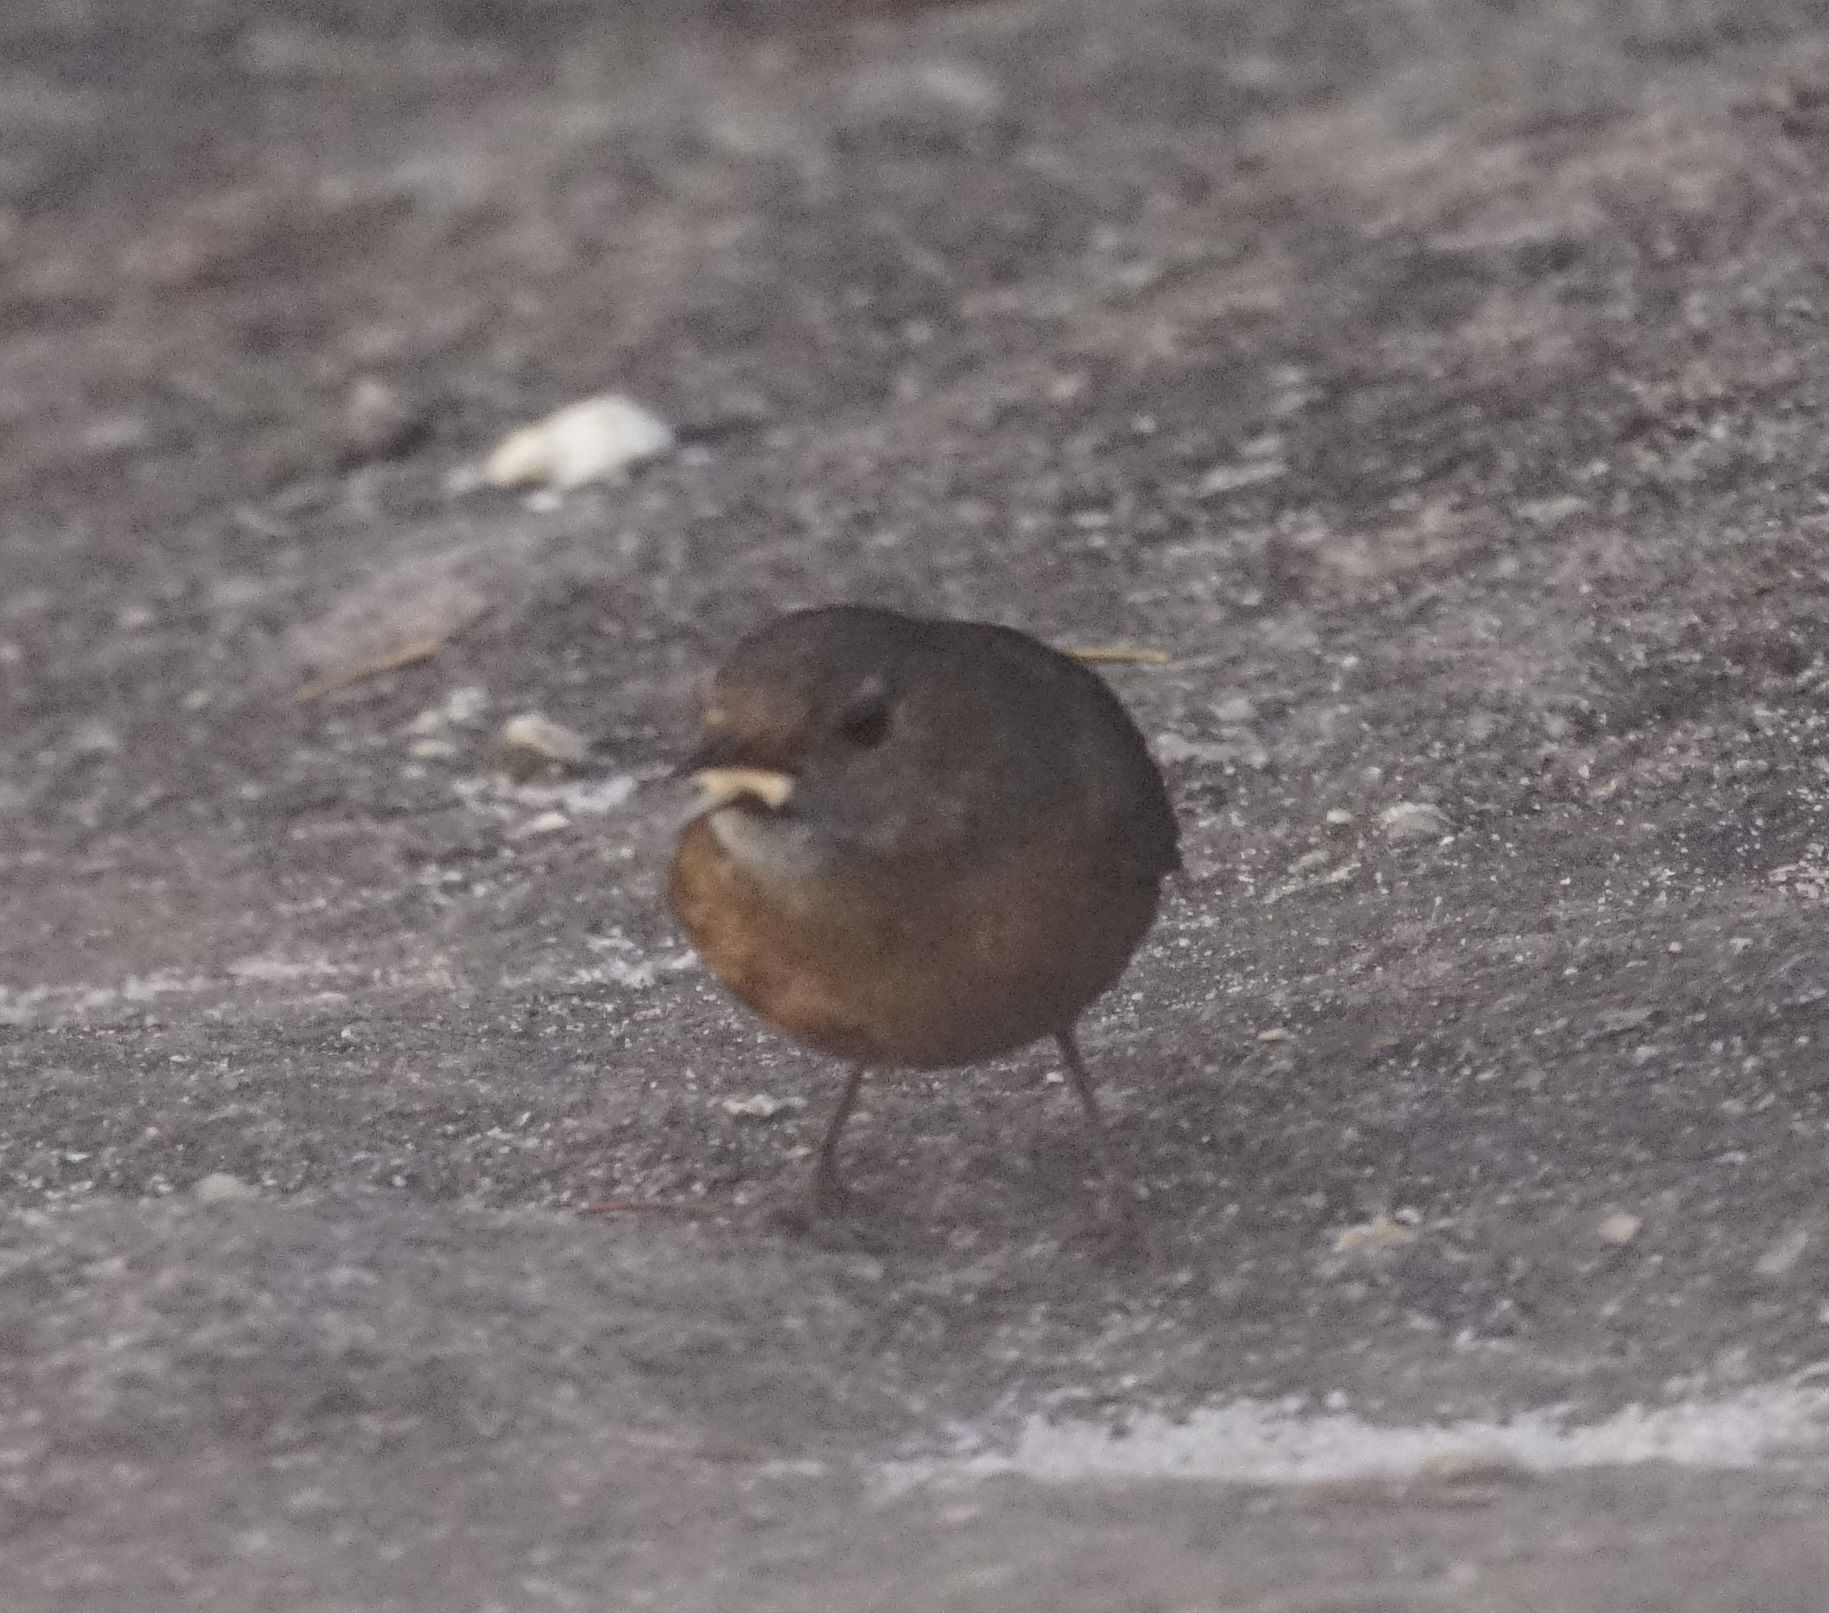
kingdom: Animalia
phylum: Chordata
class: Aves
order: Passeriformes
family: Acanthizidae
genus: Origma
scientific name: Origma solitaria
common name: Rockwarbler
